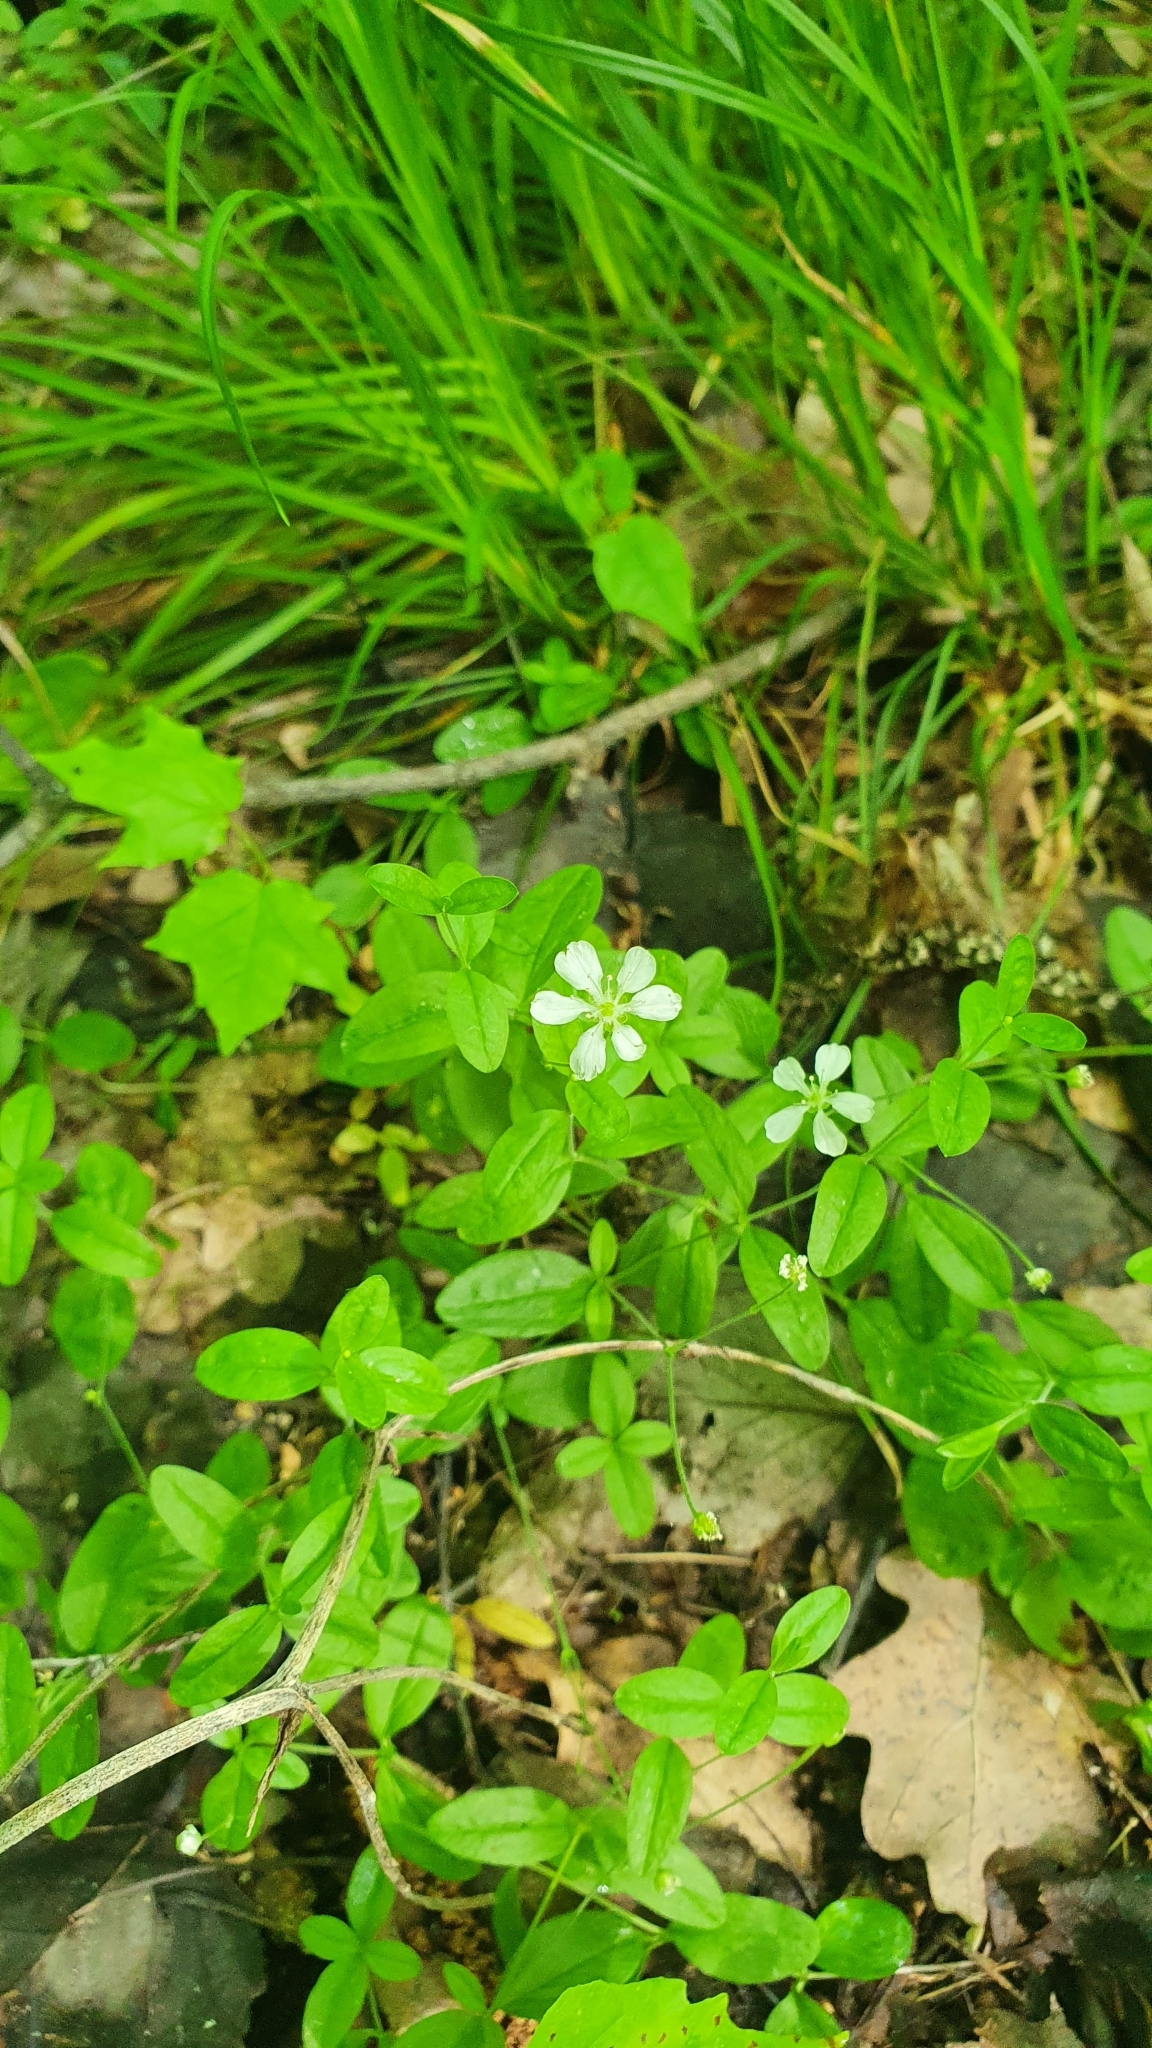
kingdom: Plantae
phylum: Tracheophyta
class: Magnoliopsida
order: Caryophyllales
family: Caryophyllaceae
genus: Moehringia
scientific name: Moehringia lateriflora
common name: Blunt-leaved sandwort
